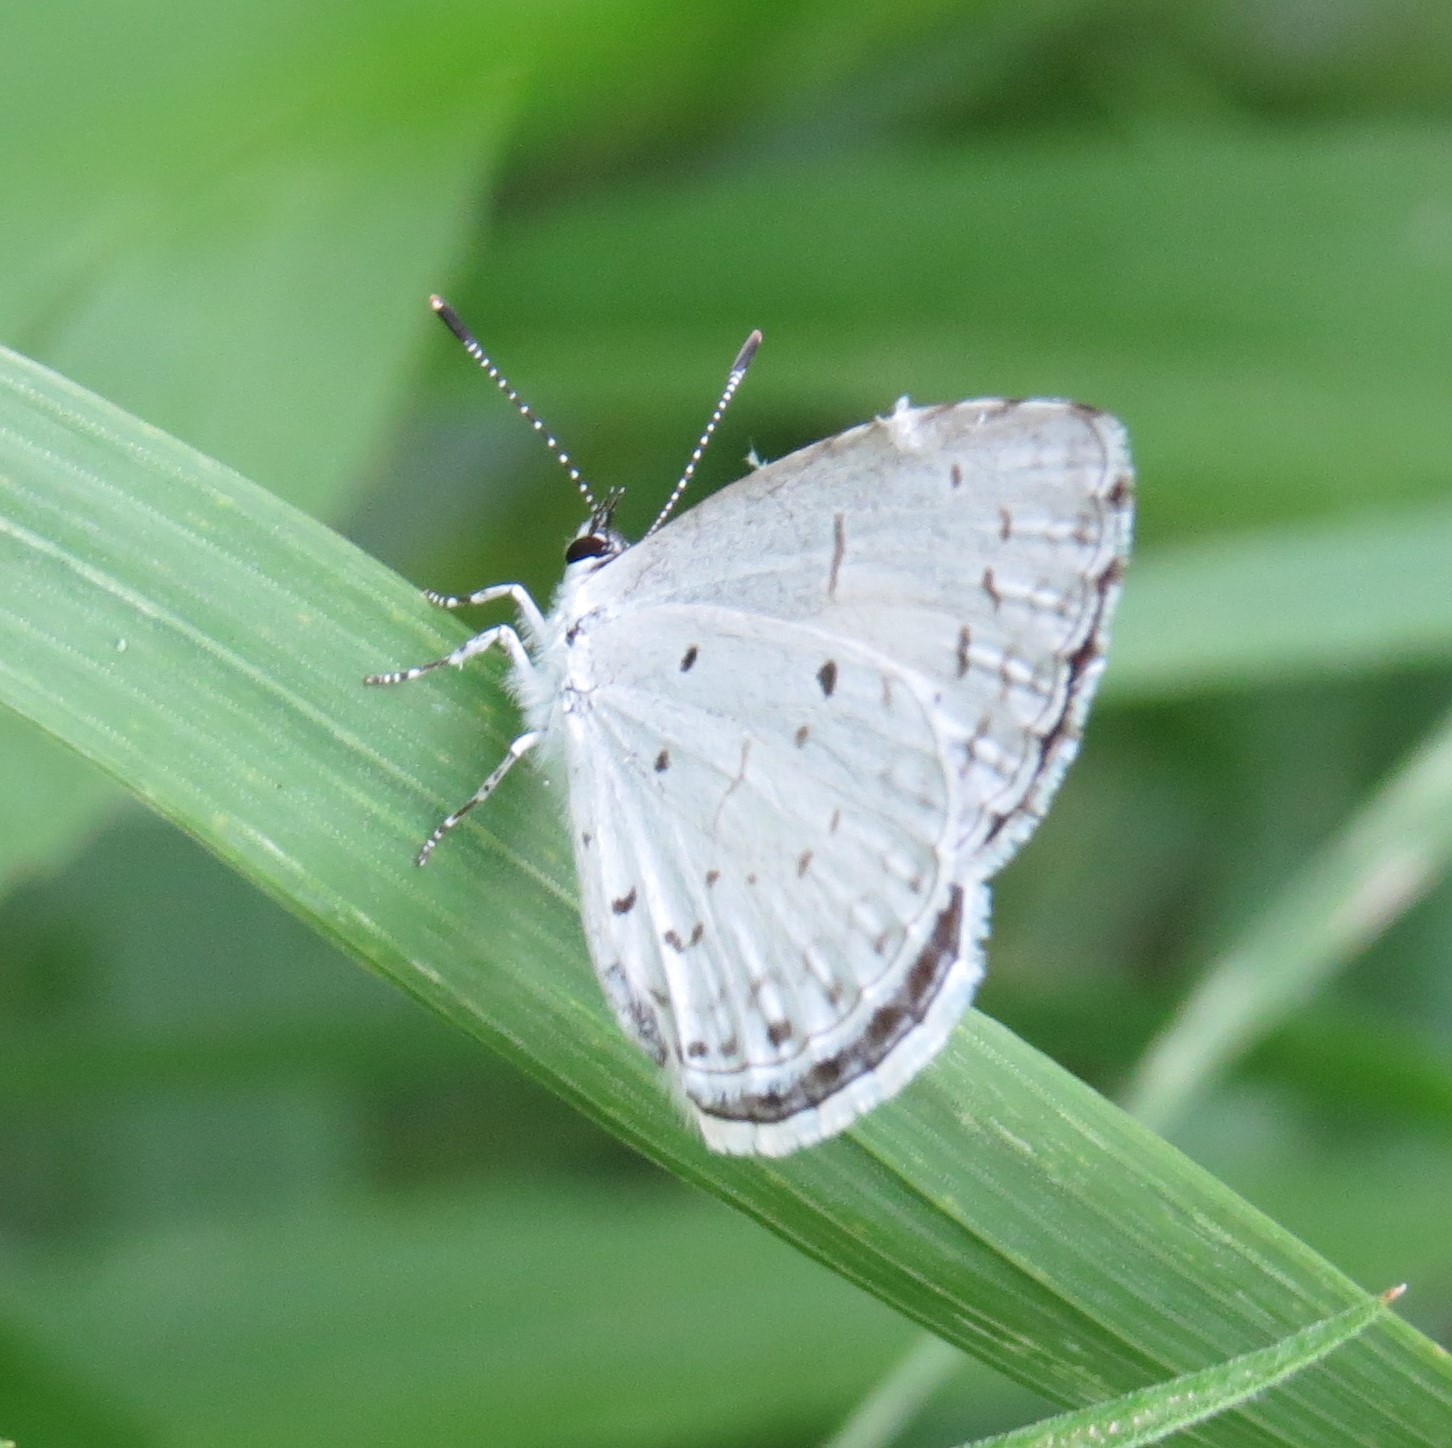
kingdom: Animalia
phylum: Arthropoda
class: Insecta
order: Lepidoptera
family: Lycaenidae
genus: Cyaniris
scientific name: Cyaniris neglecta
